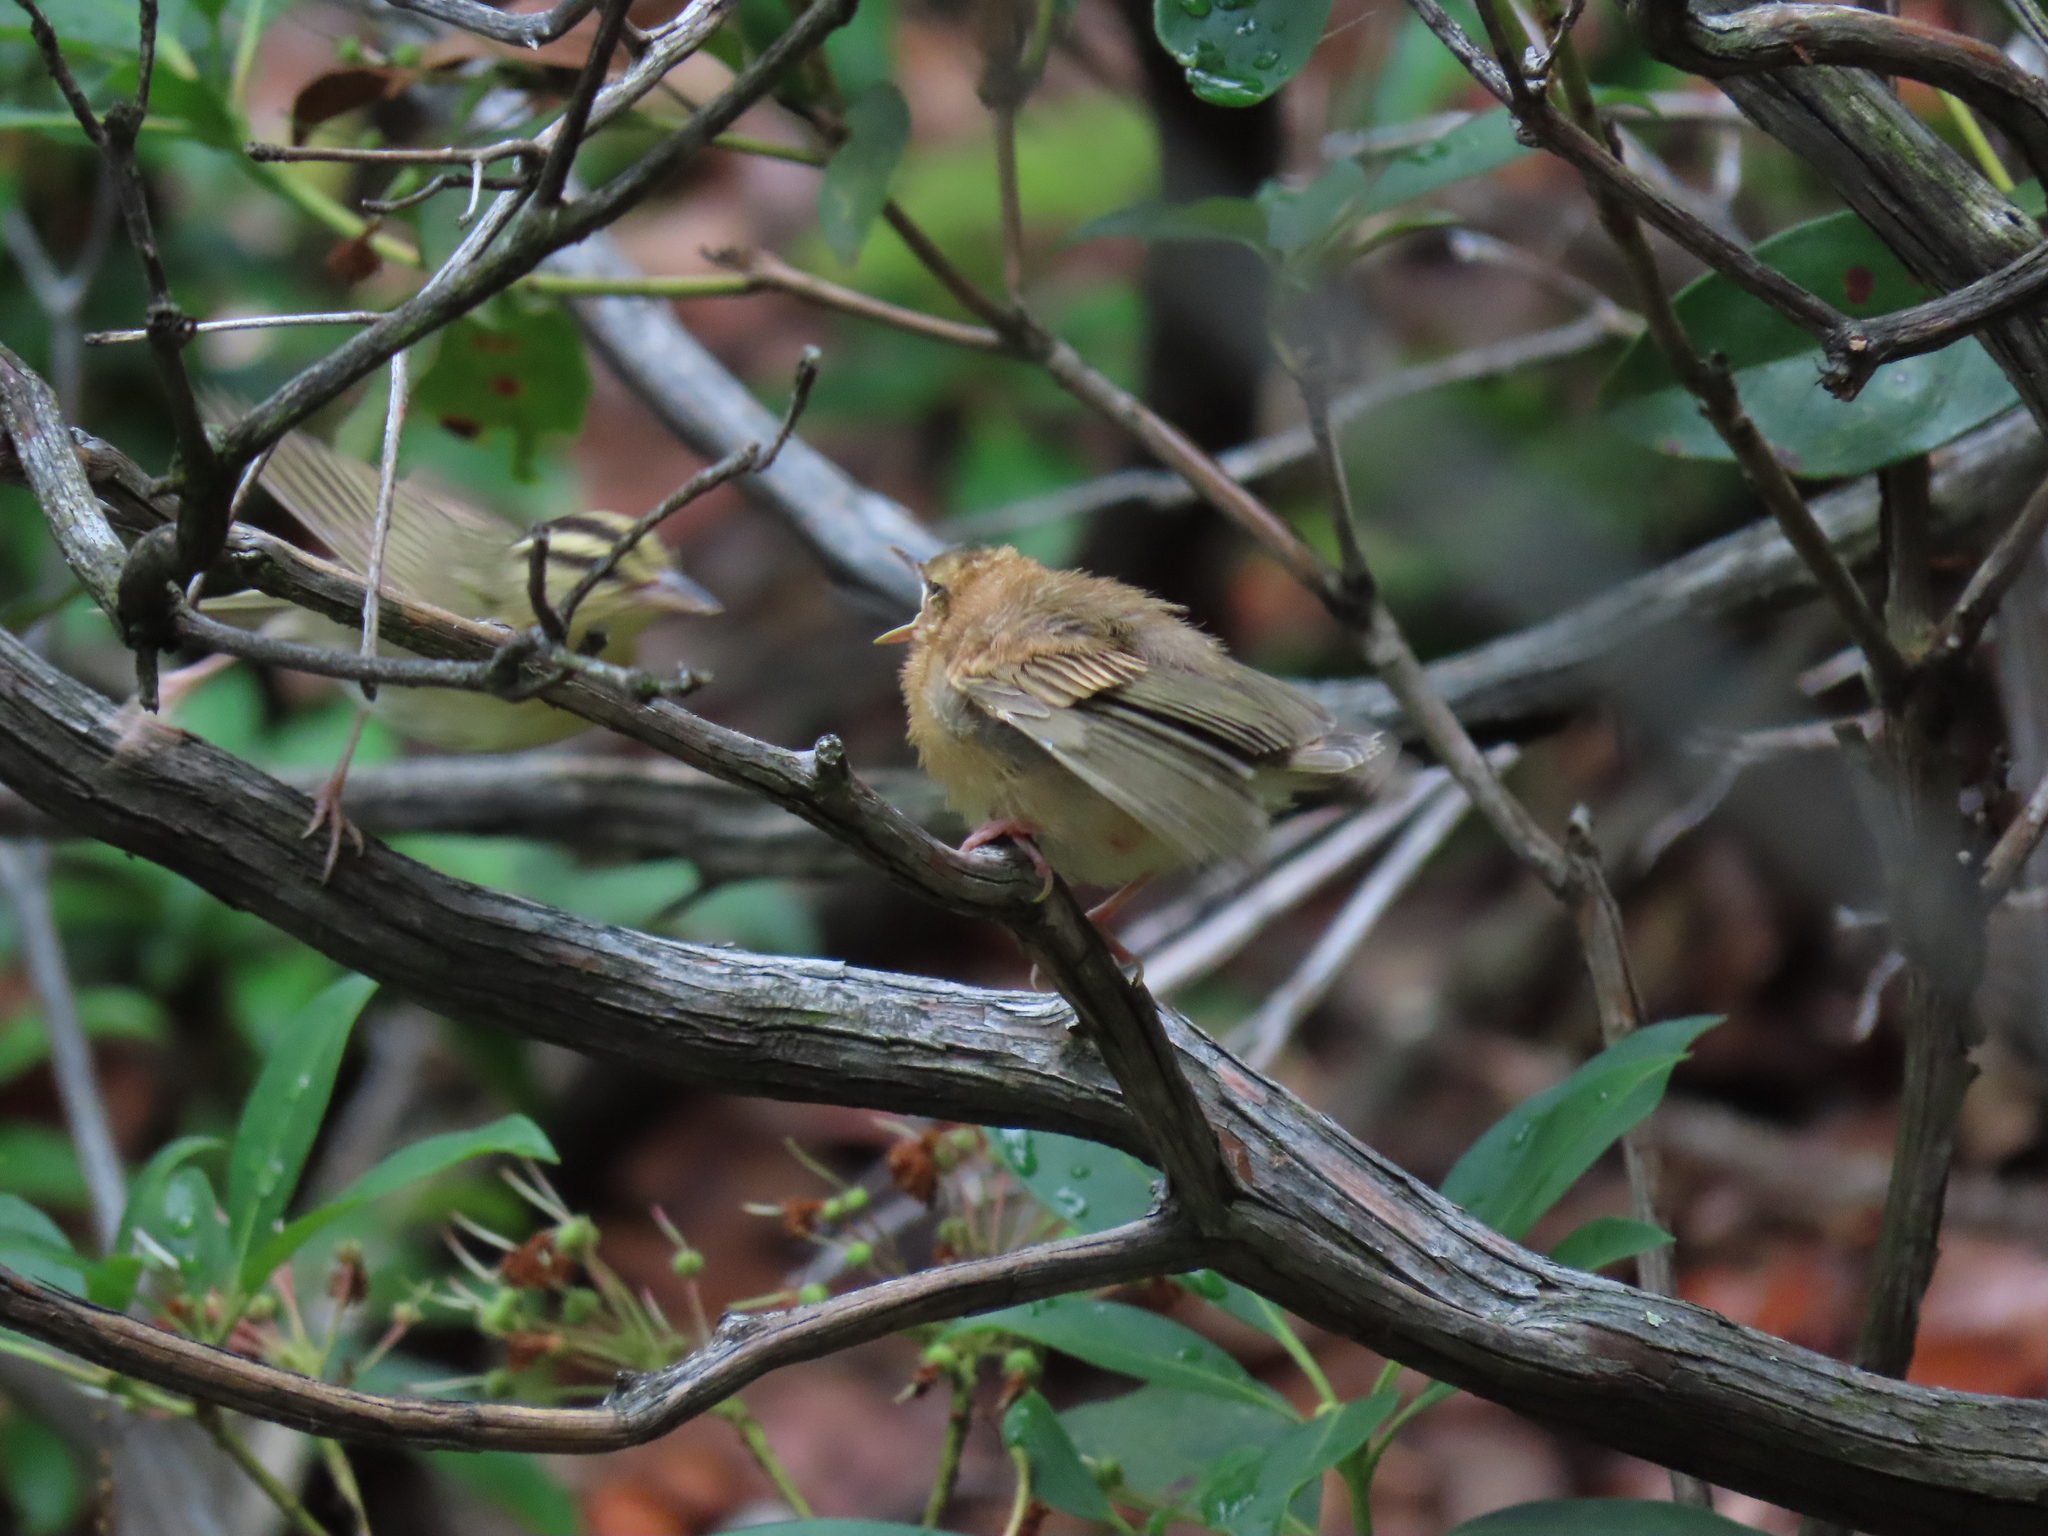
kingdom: Animalia
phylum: Chordata
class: Aves
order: Passeriformes
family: Parulidae
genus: Helmitheros
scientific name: Helmitheros vermivorum
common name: Worm-eating warbler
